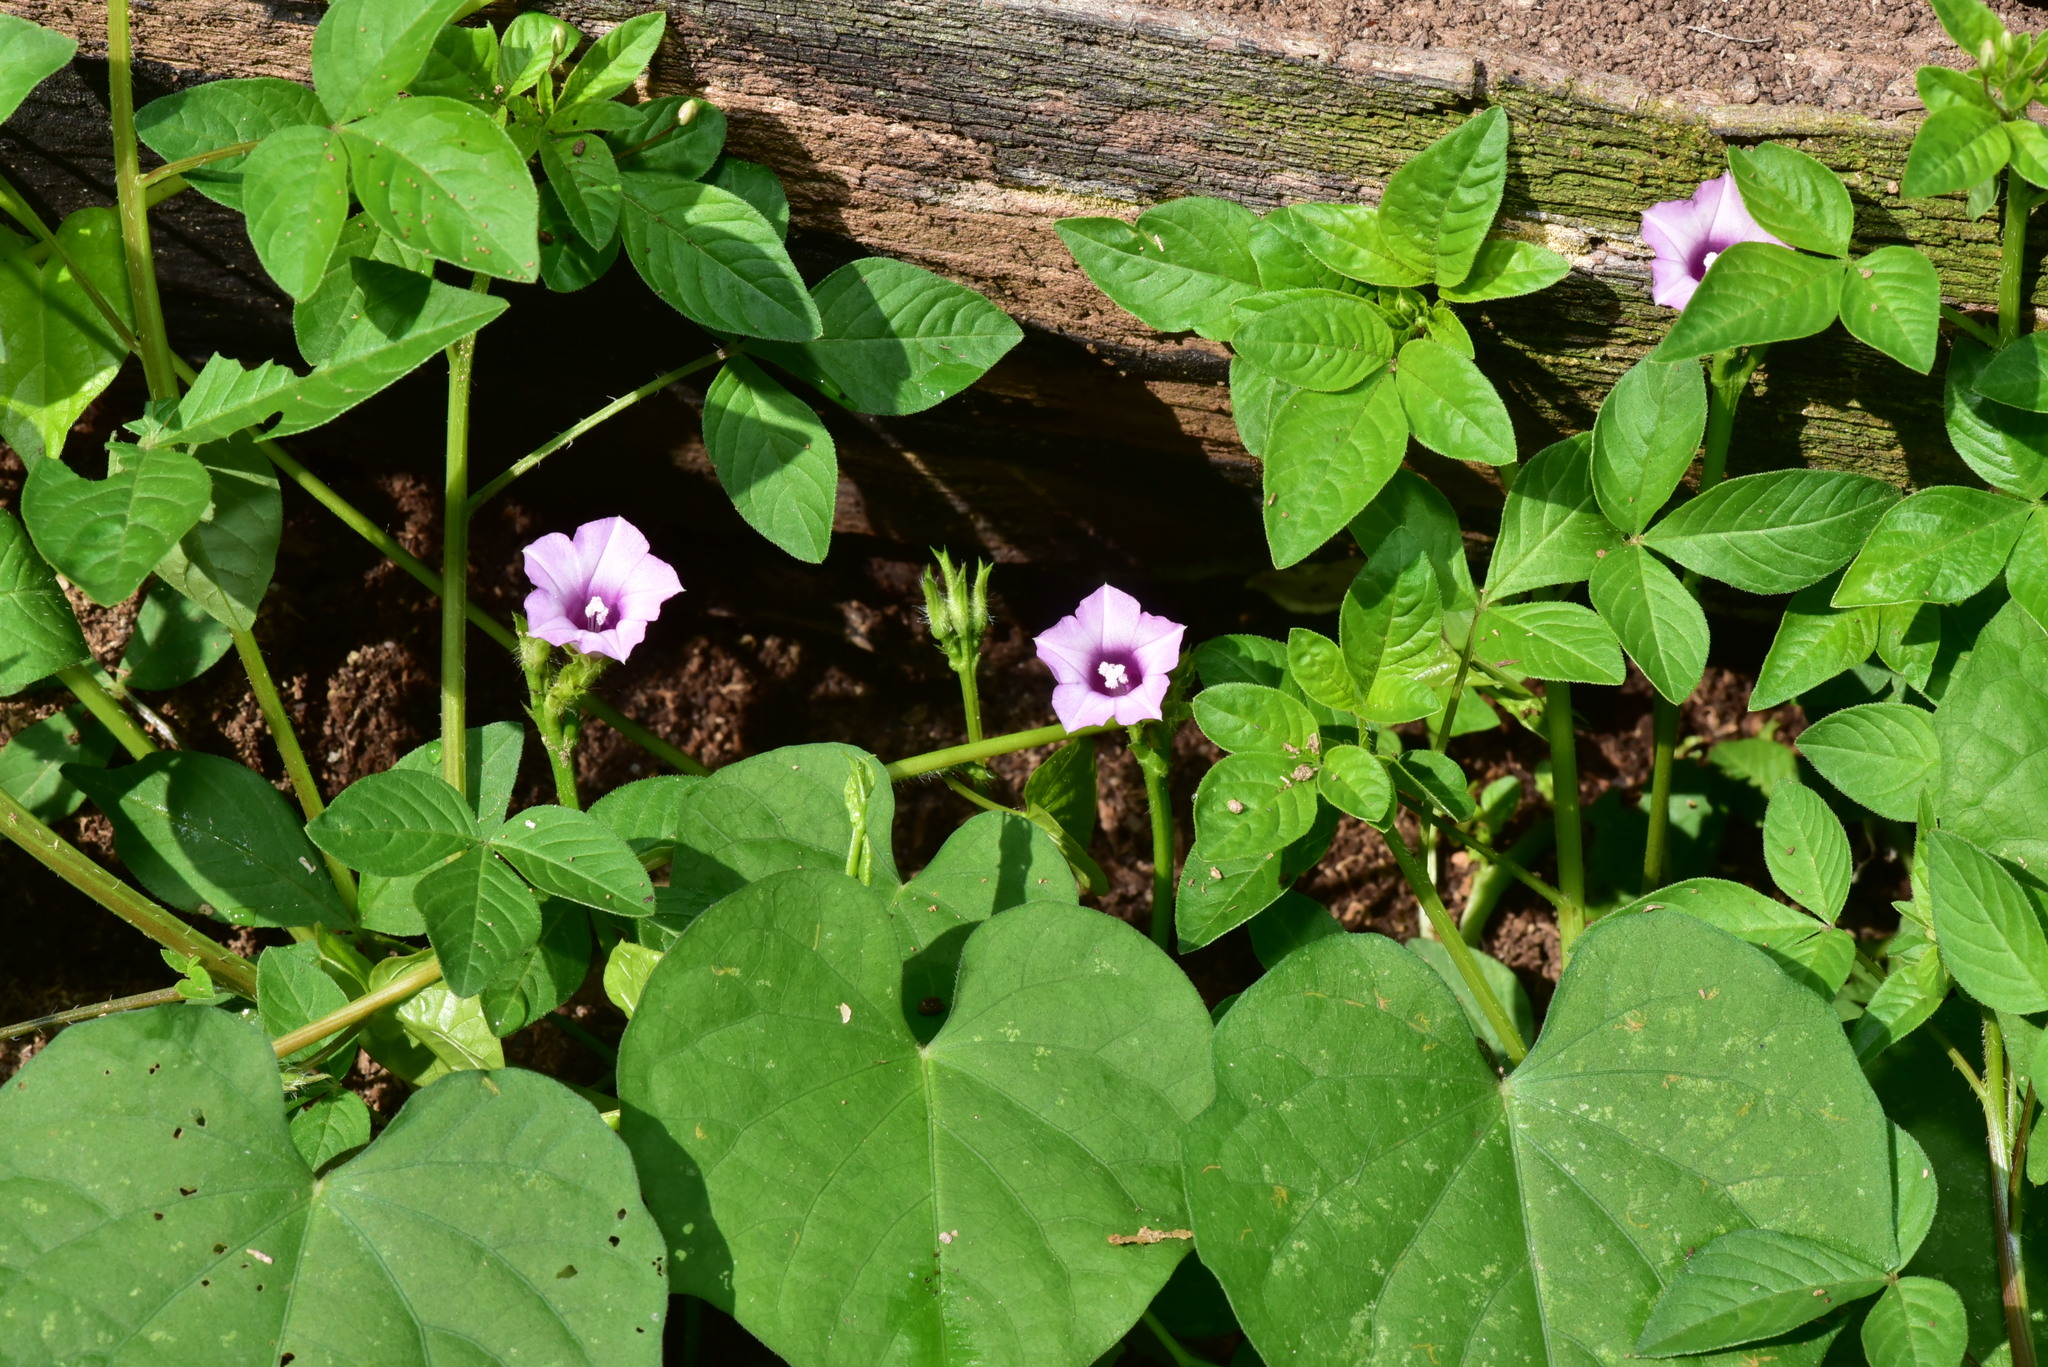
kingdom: Plantae
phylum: Tracheophyta
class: Magnoliopsida
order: Solanales
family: Convolvulaceae
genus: Ipomoea
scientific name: Ipomoea triloba
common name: Little-bell
